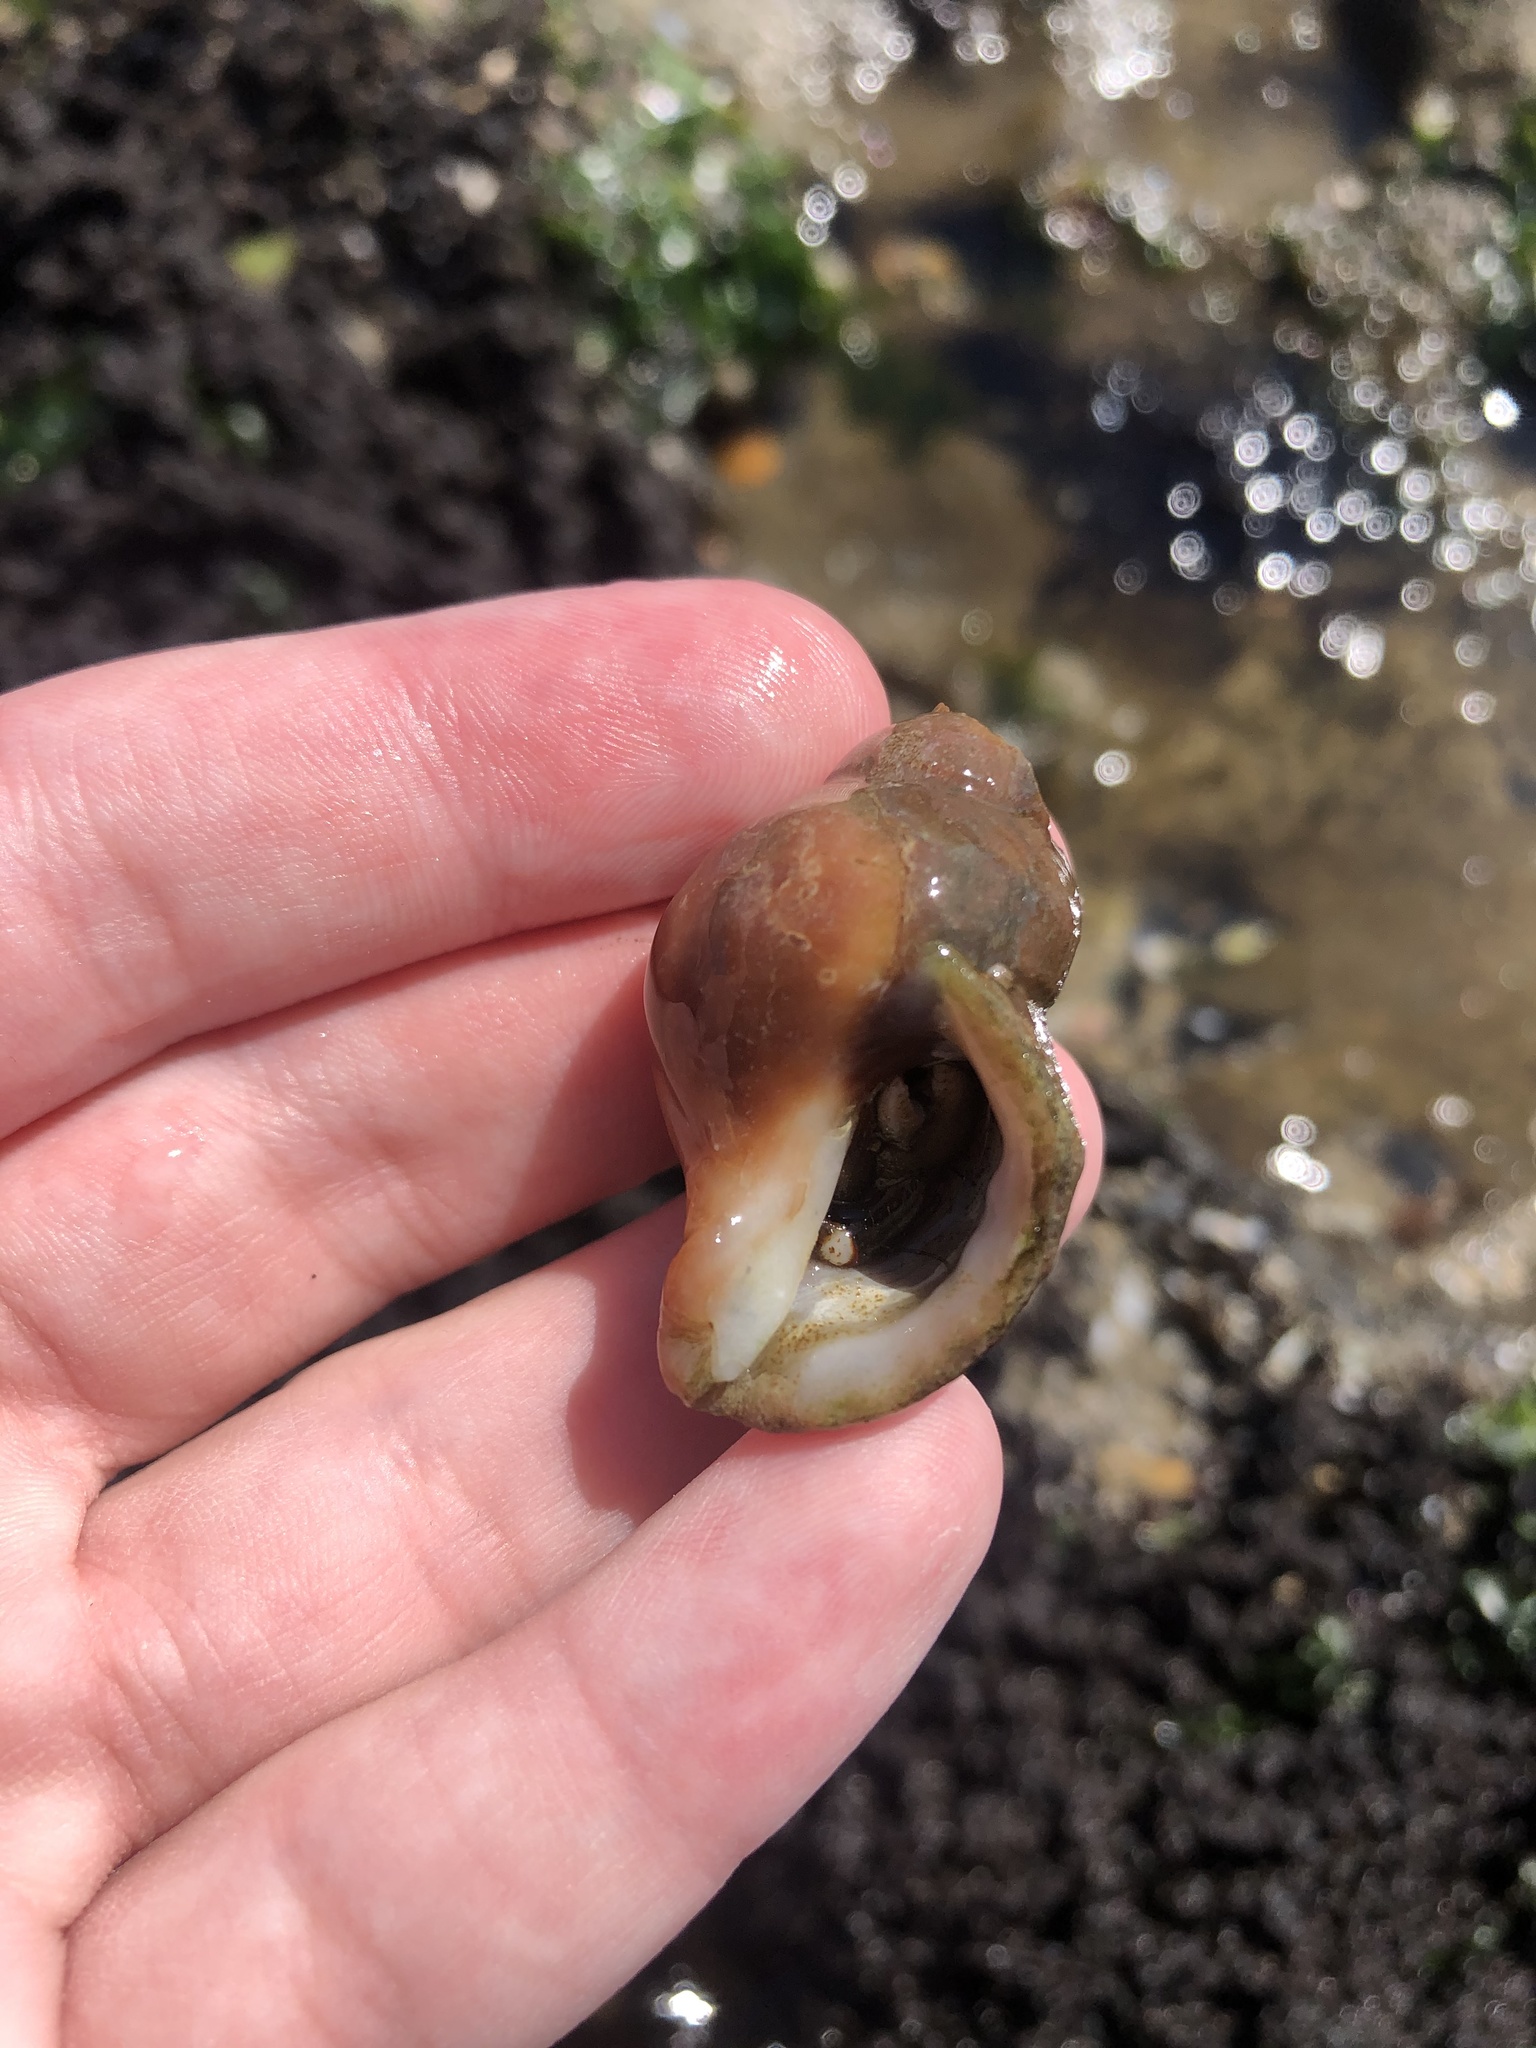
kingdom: Animalia
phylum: Mollusca
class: Gastropoda
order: Neogastropoda
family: Muricidae
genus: Nucella
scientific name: Nucella lamellosa
